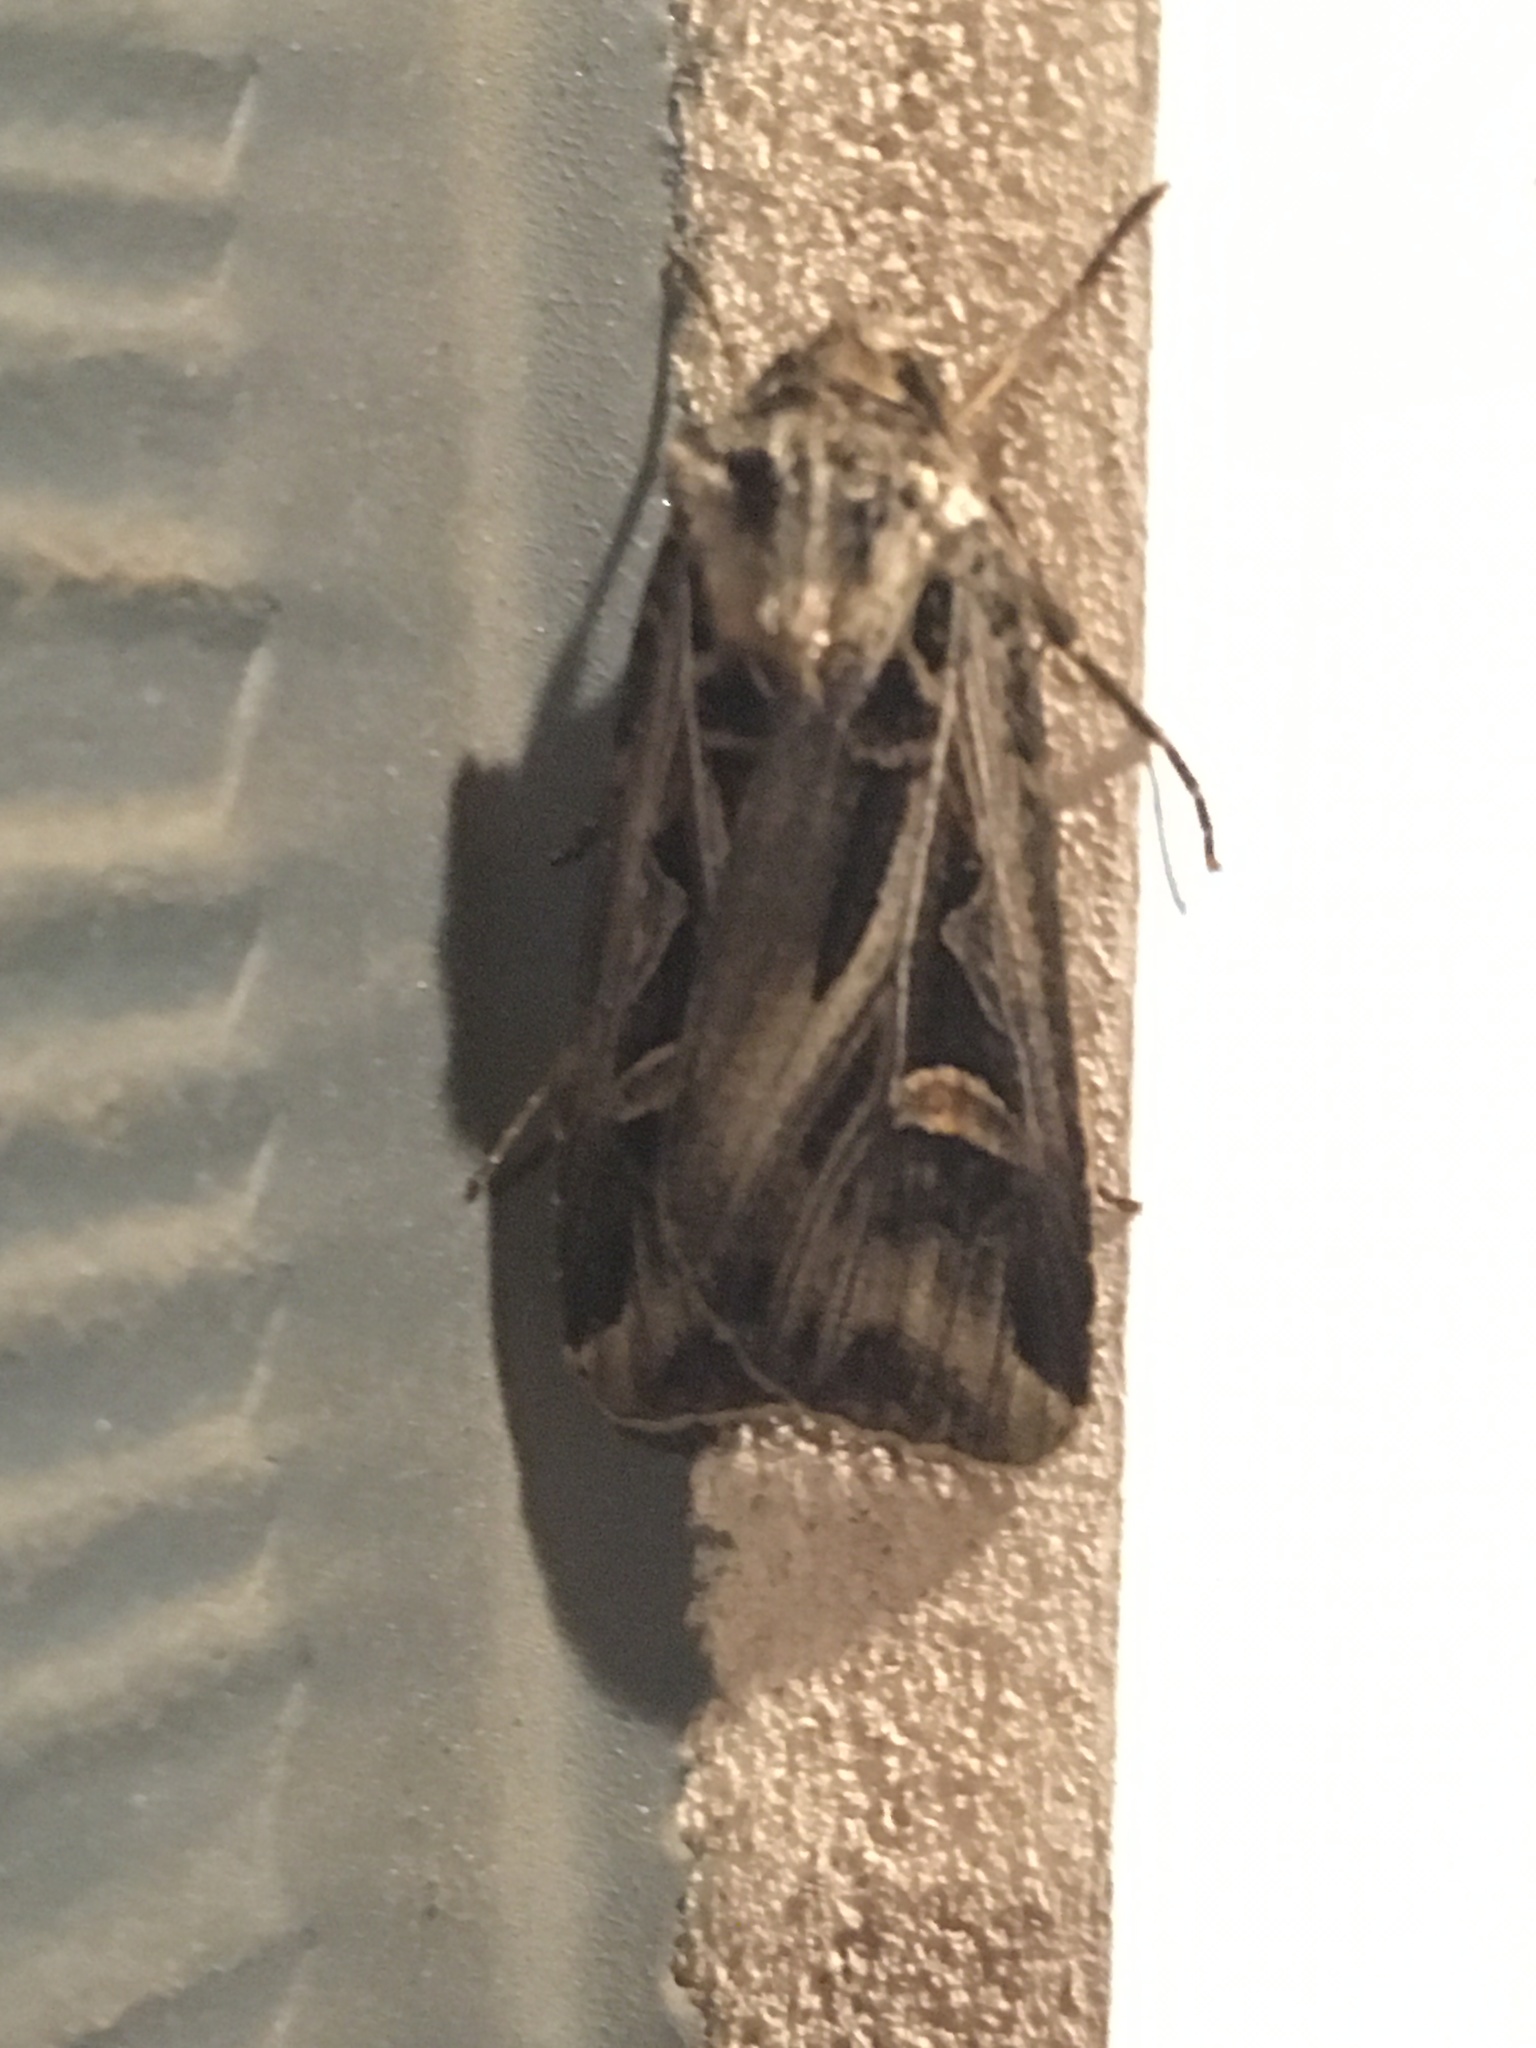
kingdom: Animalia
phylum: Arthropoda
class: Insecta
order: Lepidoptera
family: Noctuidae
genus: Feltia
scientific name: Feltia jaculifera
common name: Dingy cutworm moth
